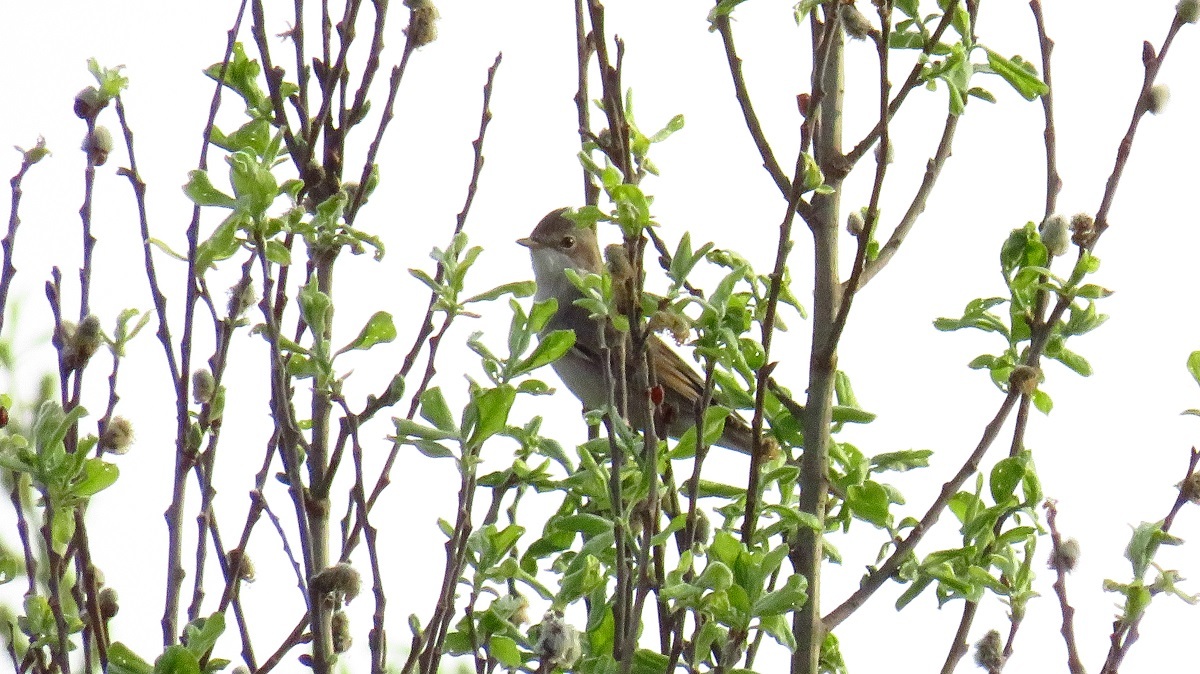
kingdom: Animalia
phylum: Chordata
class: Aves
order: Passeriformes
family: Sylviidae
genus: Sylvia
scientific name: Sylvia communis
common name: Common whitethroat
